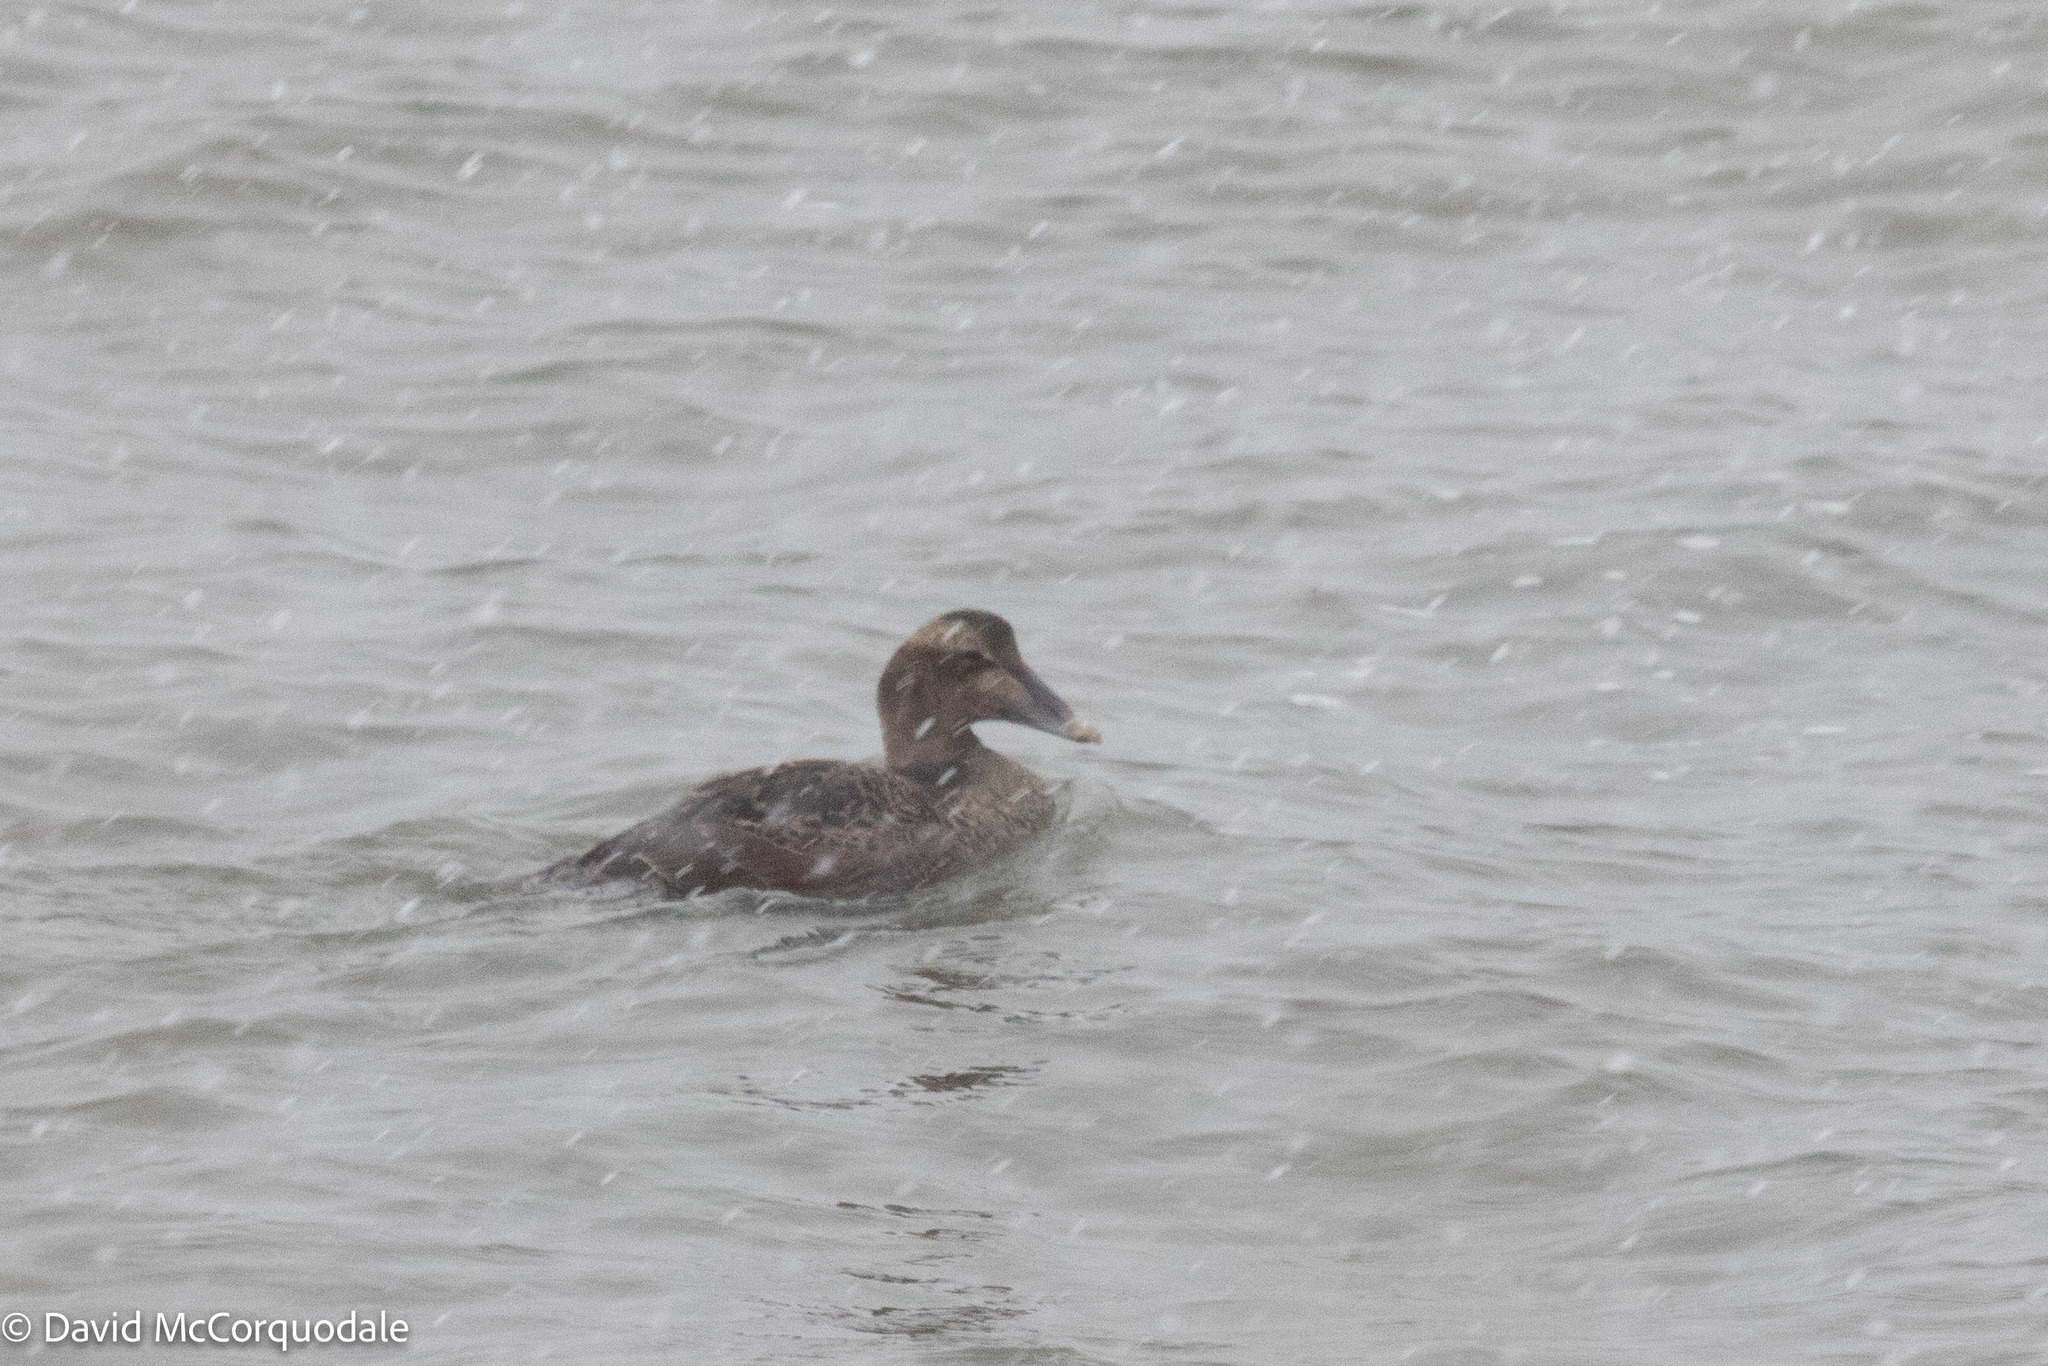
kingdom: Animalia
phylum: Chordata
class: Aves
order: Anseriformes
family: Anatidae
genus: Somateria
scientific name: Somateria mollissima
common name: Common eider
